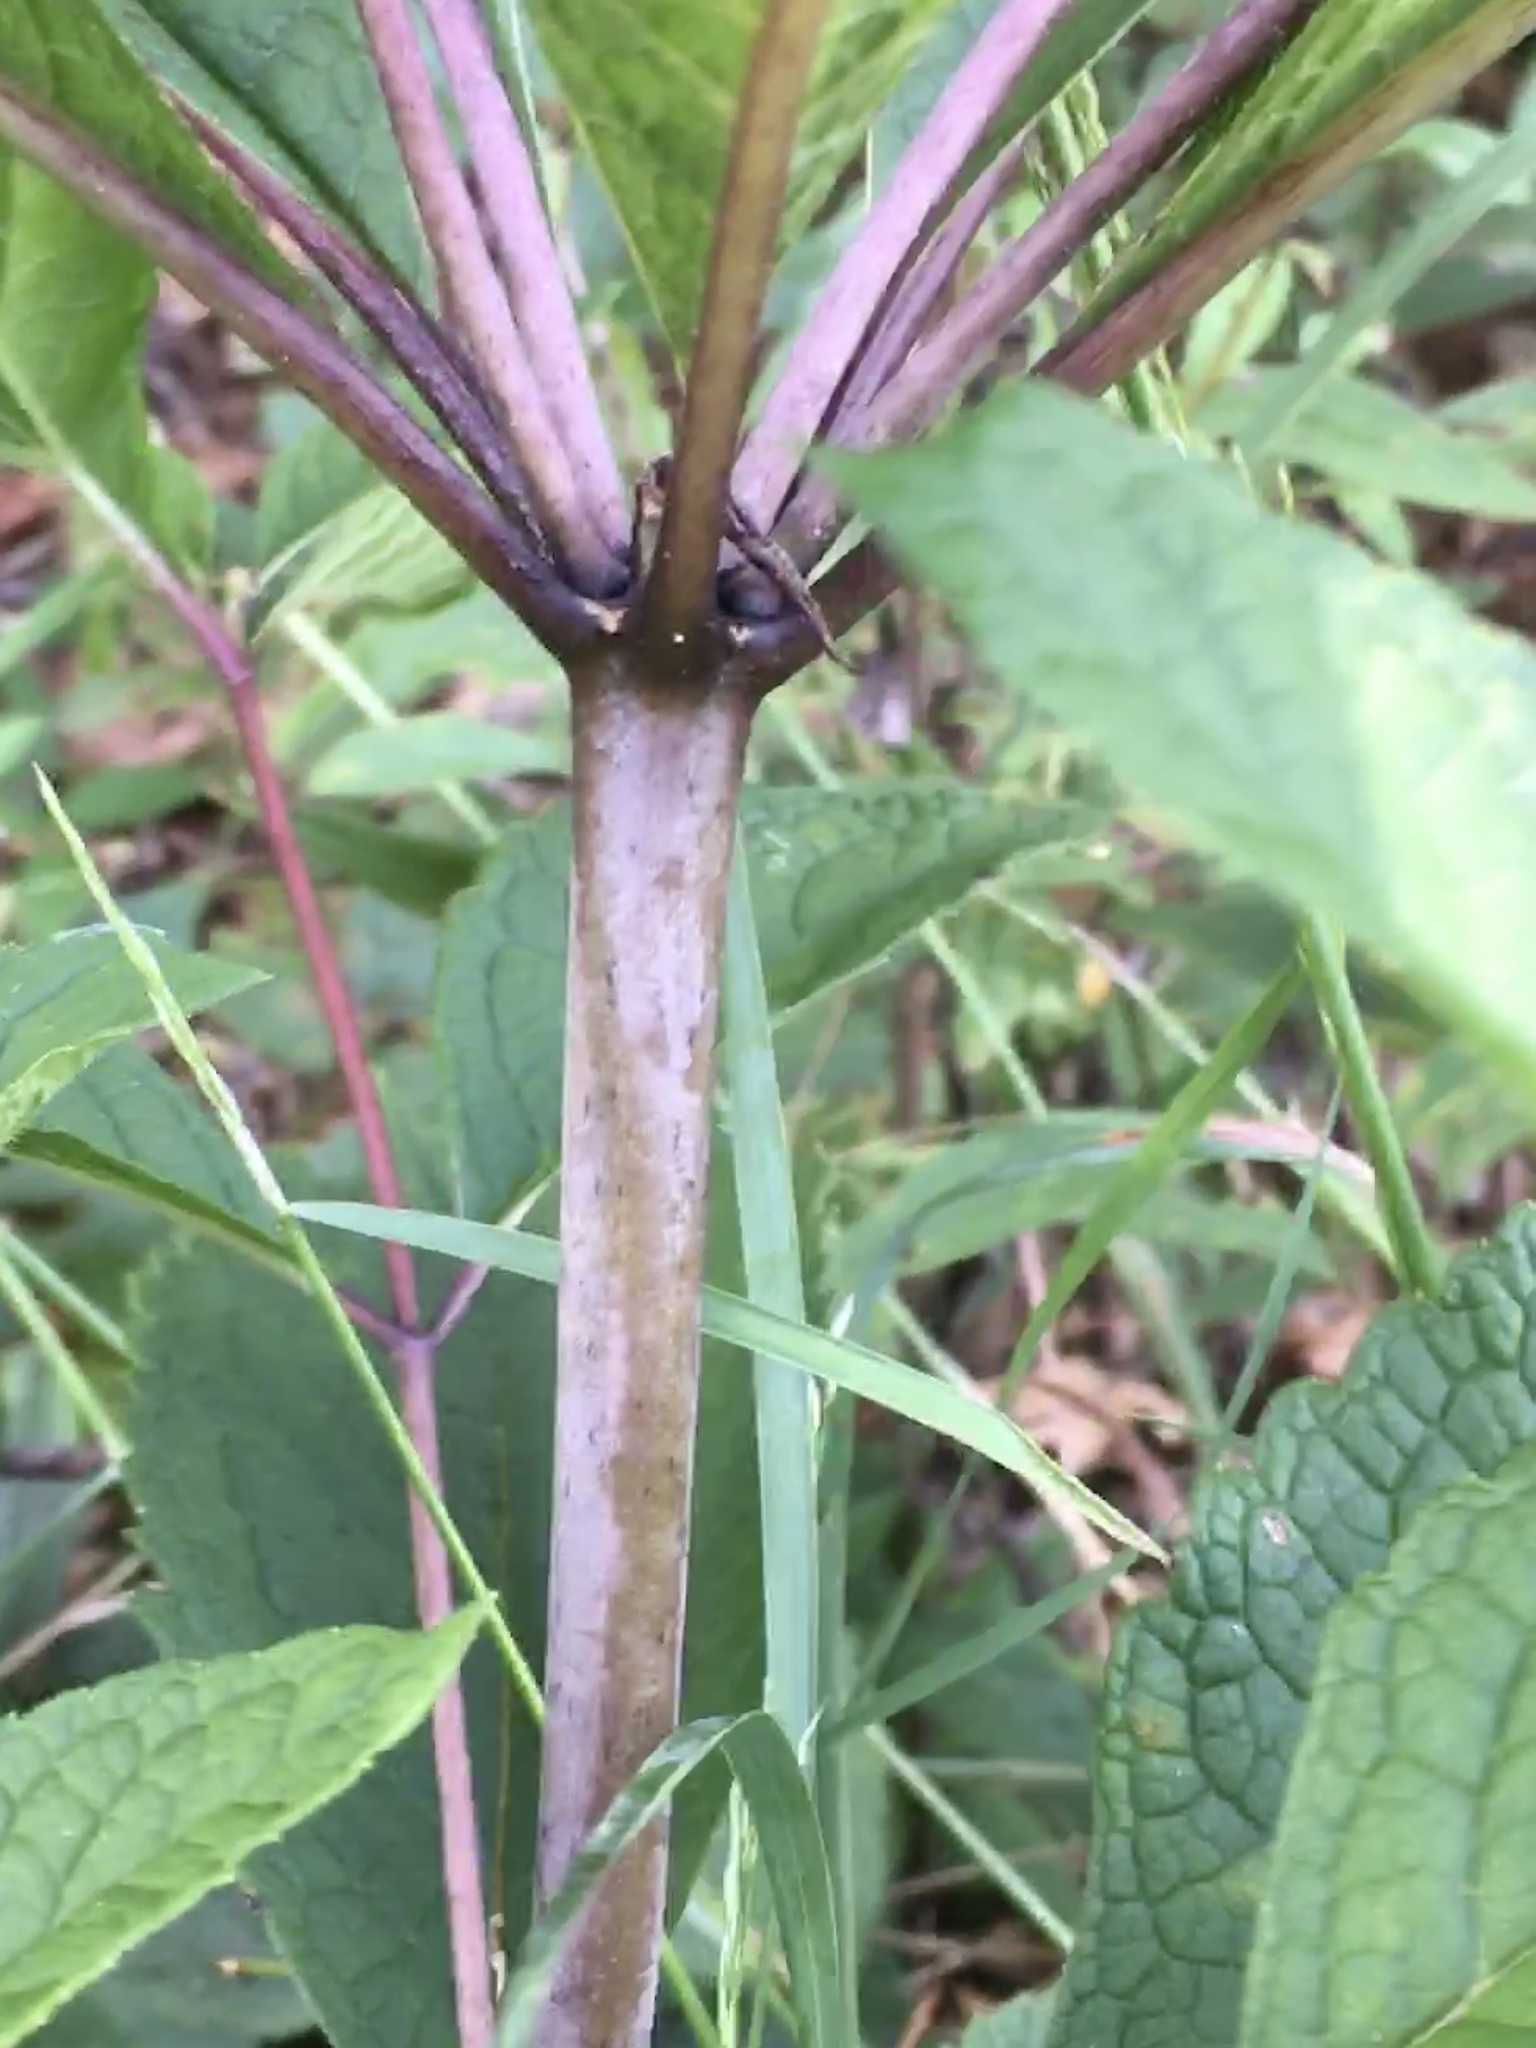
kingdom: Plantae
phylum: Tracheophyta
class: Magnoliopsida
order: Asterales
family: Asteraceae
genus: Eutrochium
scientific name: Eutrochium fistulosum
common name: Trumpetweed
